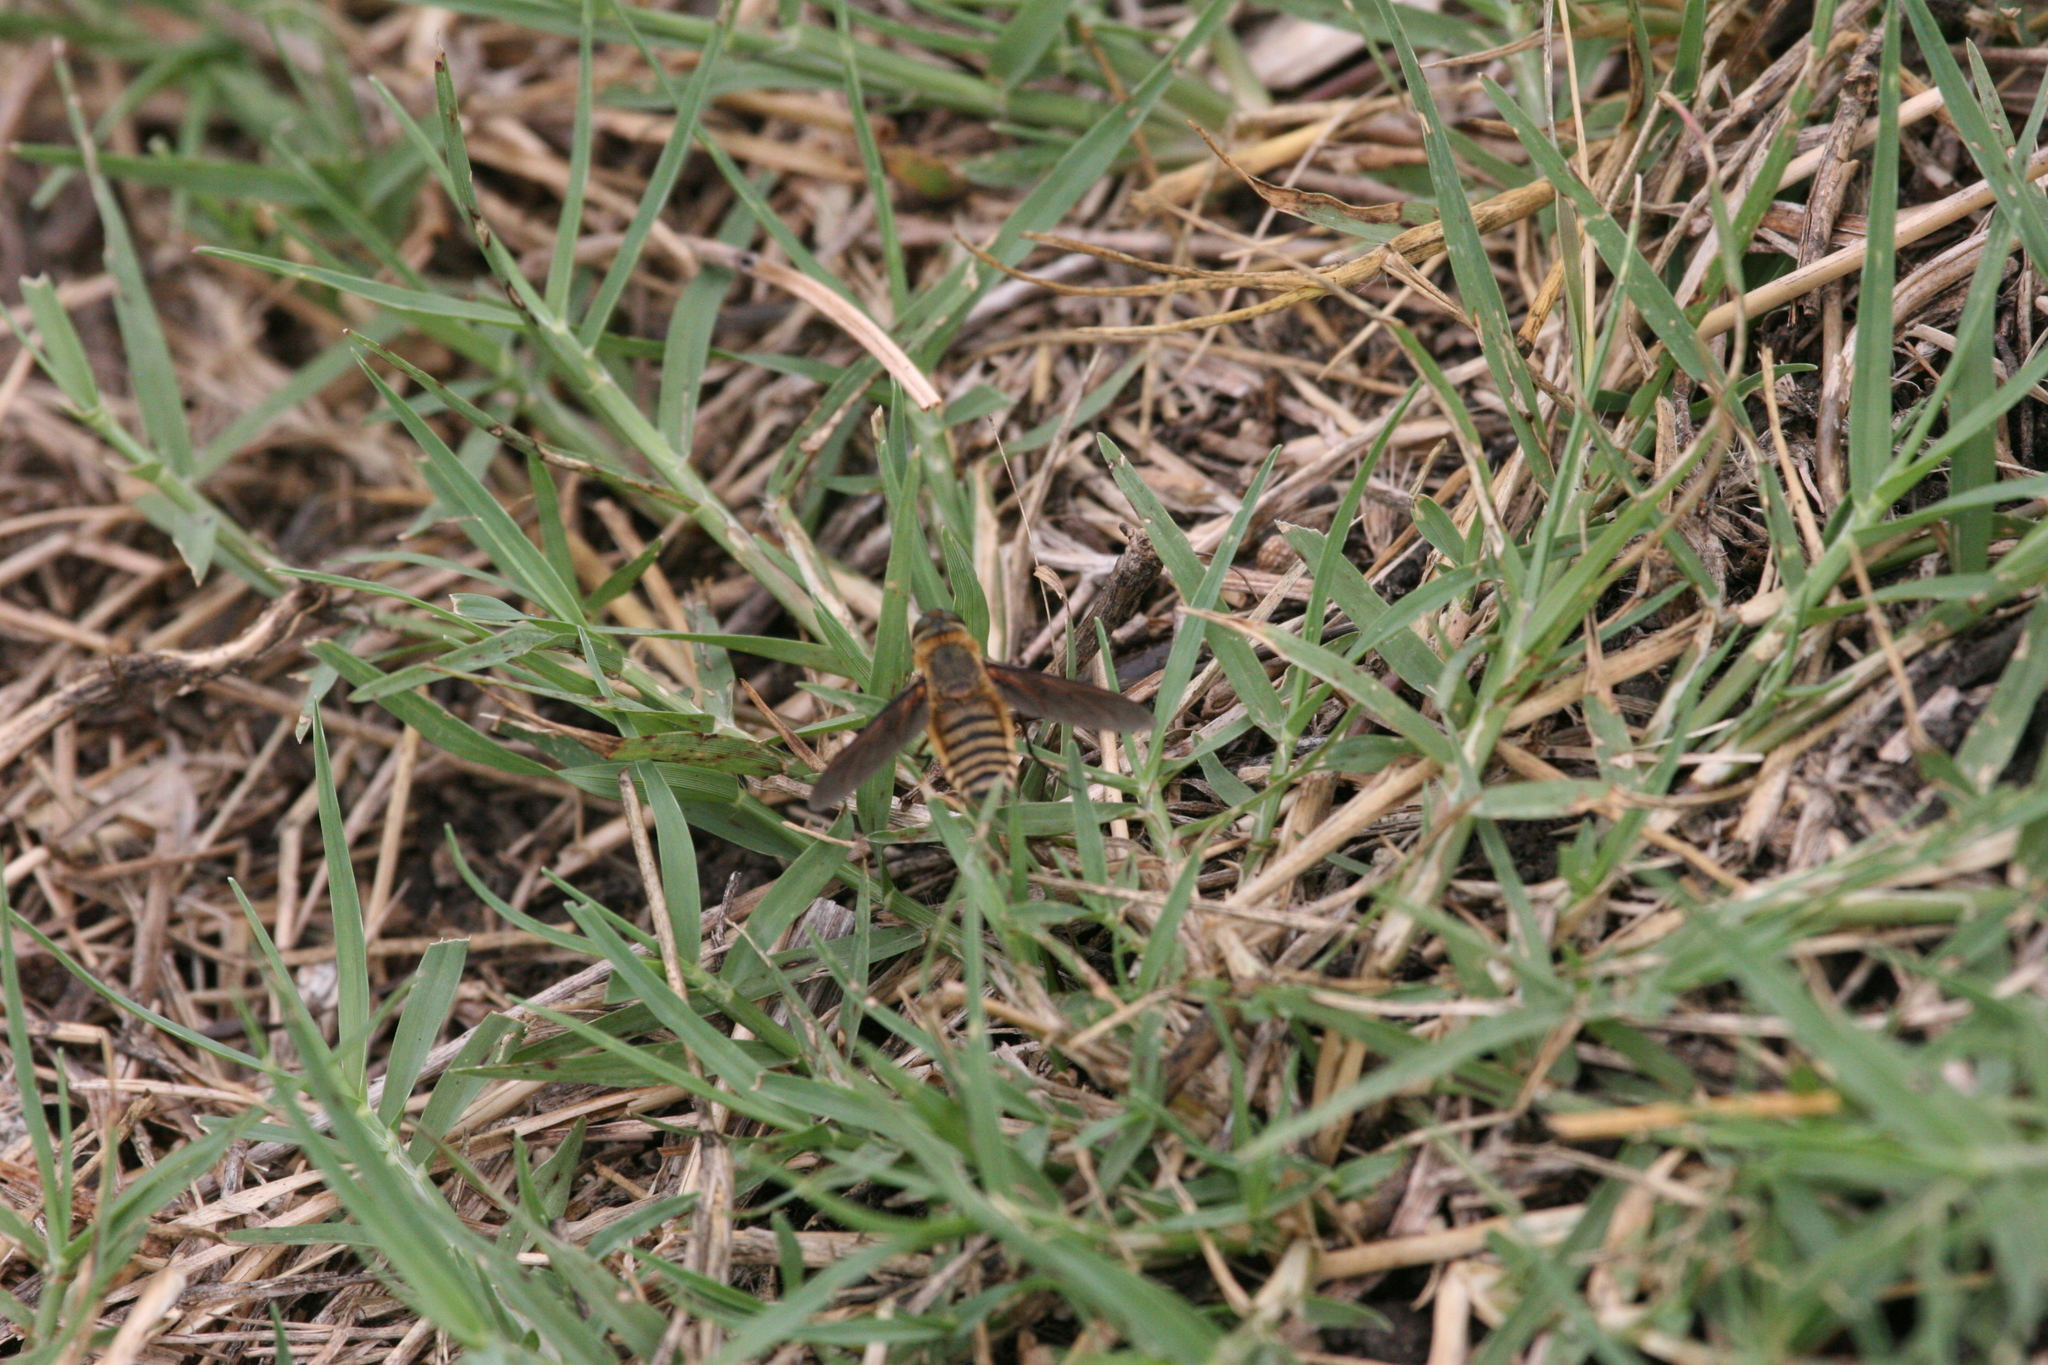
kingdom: Animalia
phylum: Arthropoda
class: Insecta
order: Diptera
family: Bombyliidae
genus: Poecilanthrax
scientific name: Poecilanthrax lucifer
